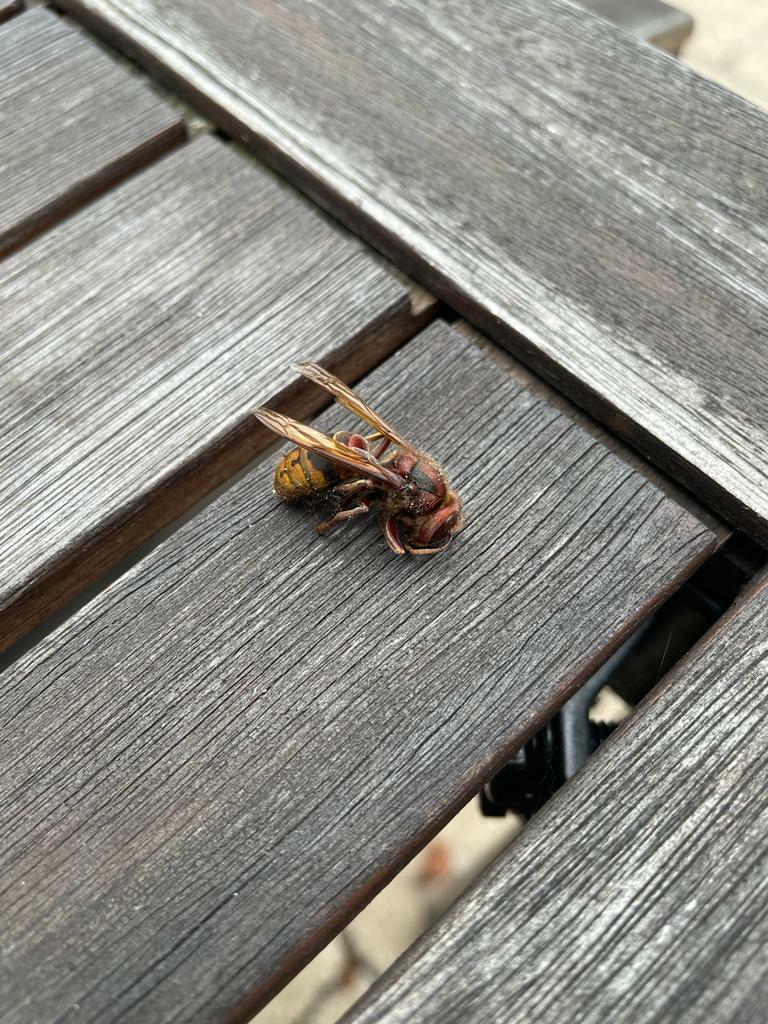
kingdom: Animalia
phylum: Arthropoda
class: Insecta
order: Hymenoptera
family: Vespidae
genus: Vespa
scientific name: Vespa crabro
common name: Hornet
